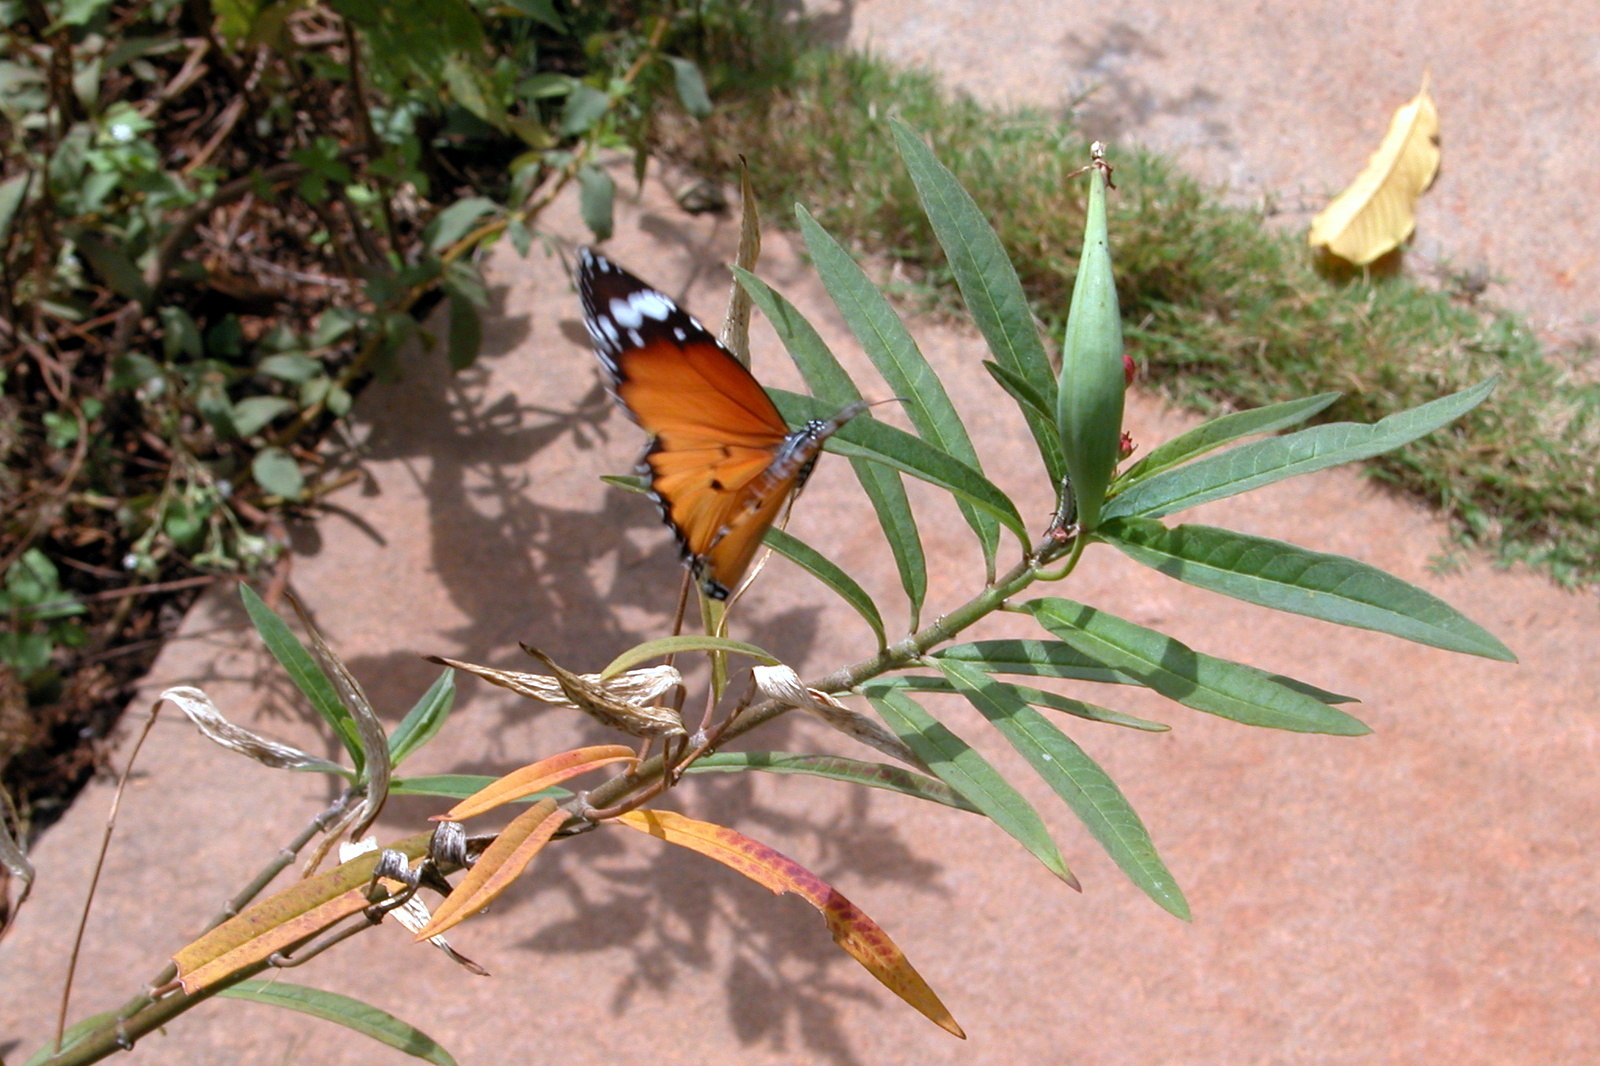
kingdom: Animalia
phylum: Arthropoda
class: Insecta
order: Lepidoptera
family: Nymphalidae
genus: Danaus
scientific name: Danaus chrysippus
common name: Plain tiger
